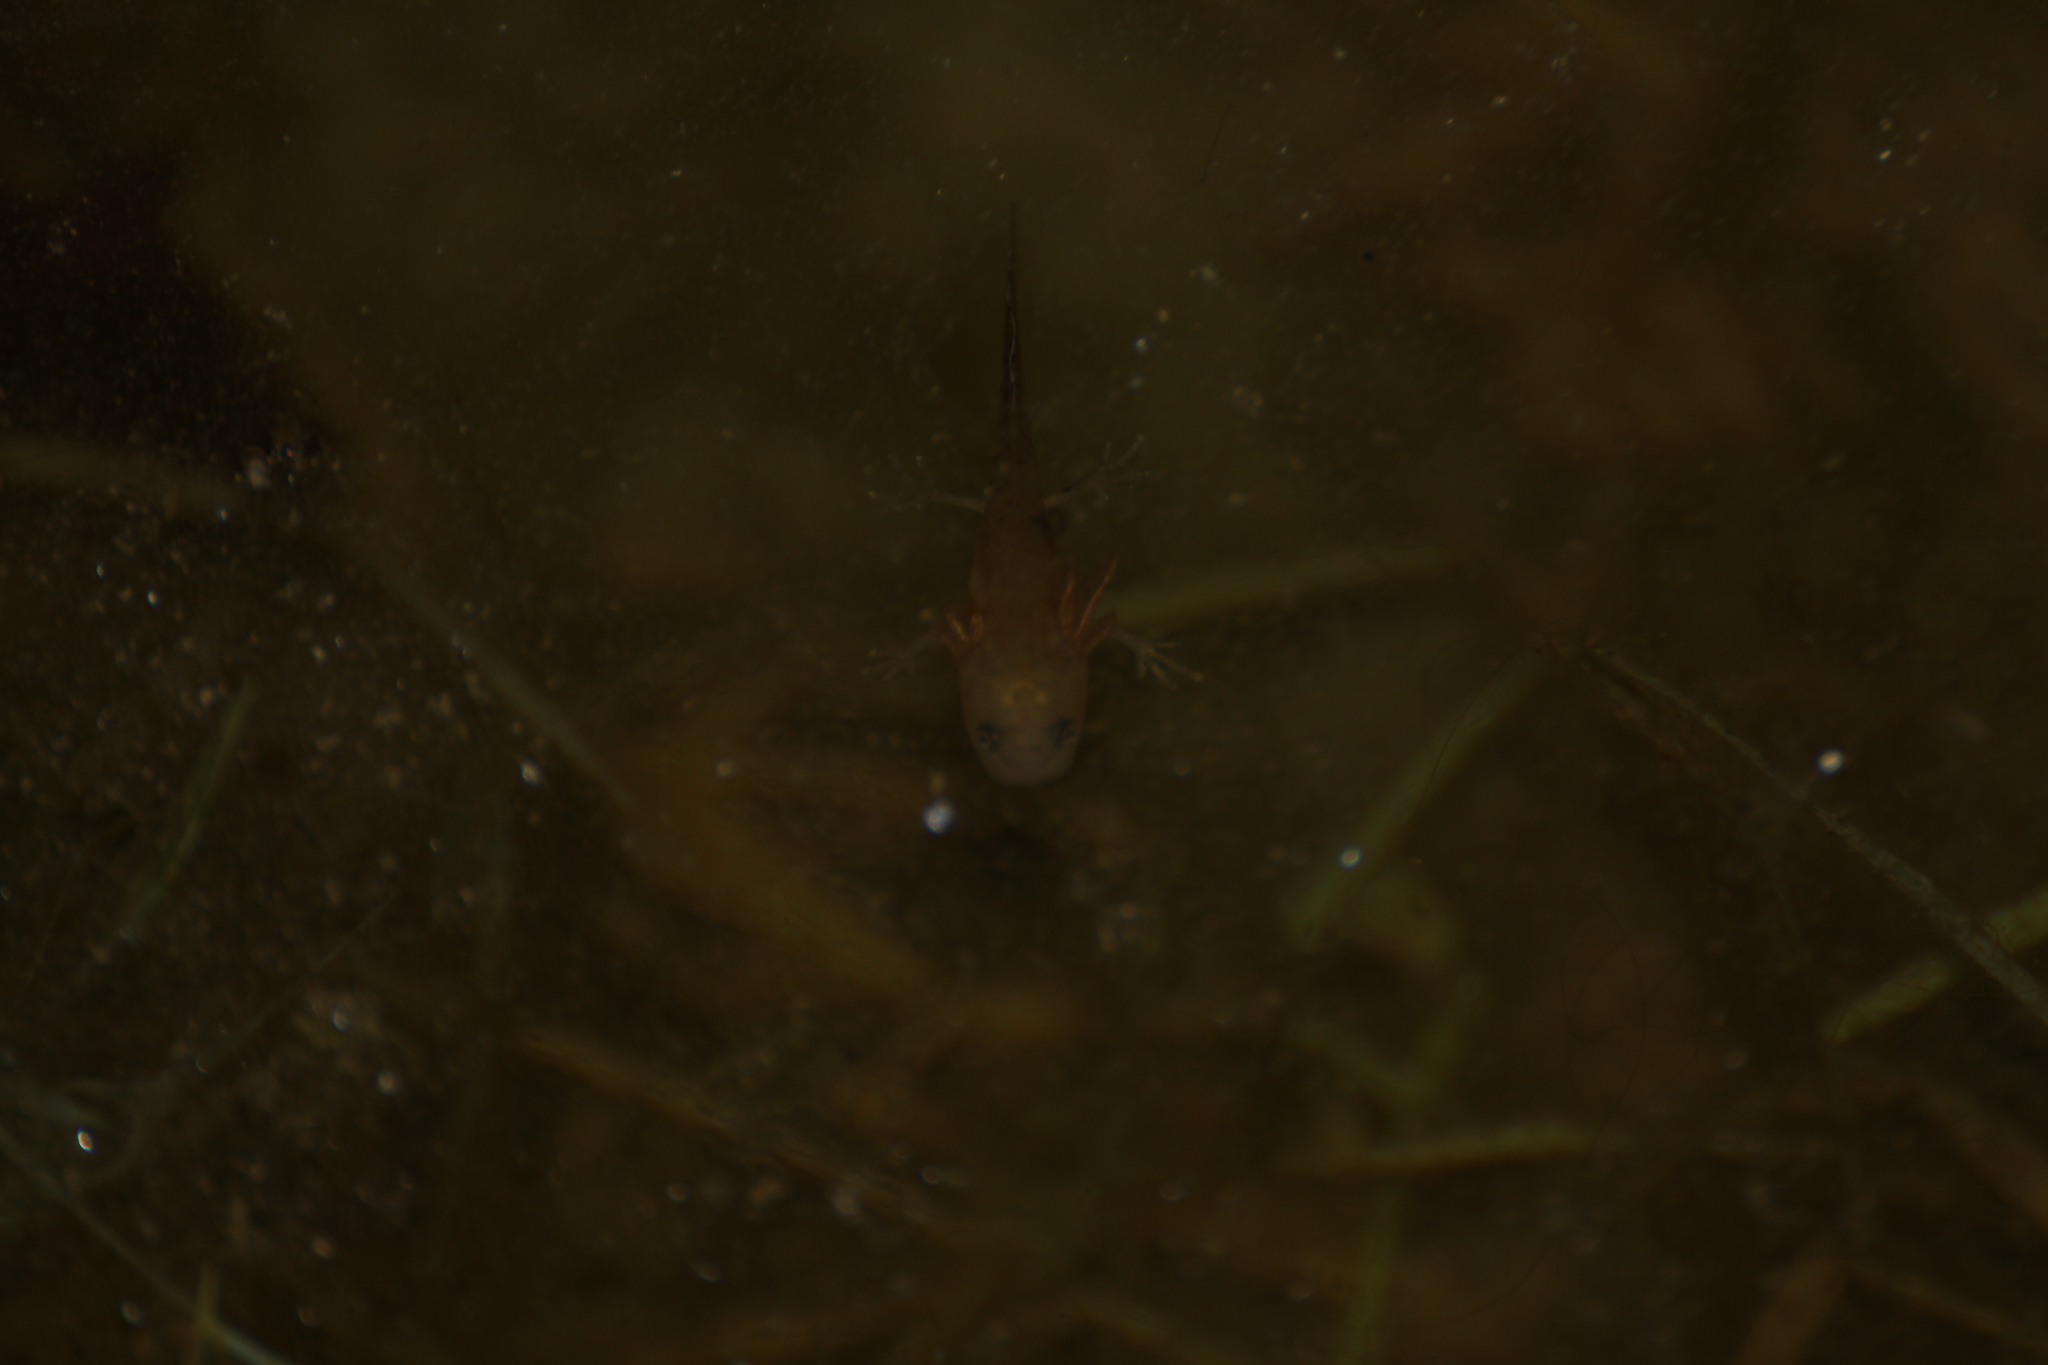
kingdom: Animalia
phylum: Chordata
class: Amphibia
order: Caudata
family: Salamandridae
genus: Triturus
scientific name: Triturus cristatus
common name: Crested newt
